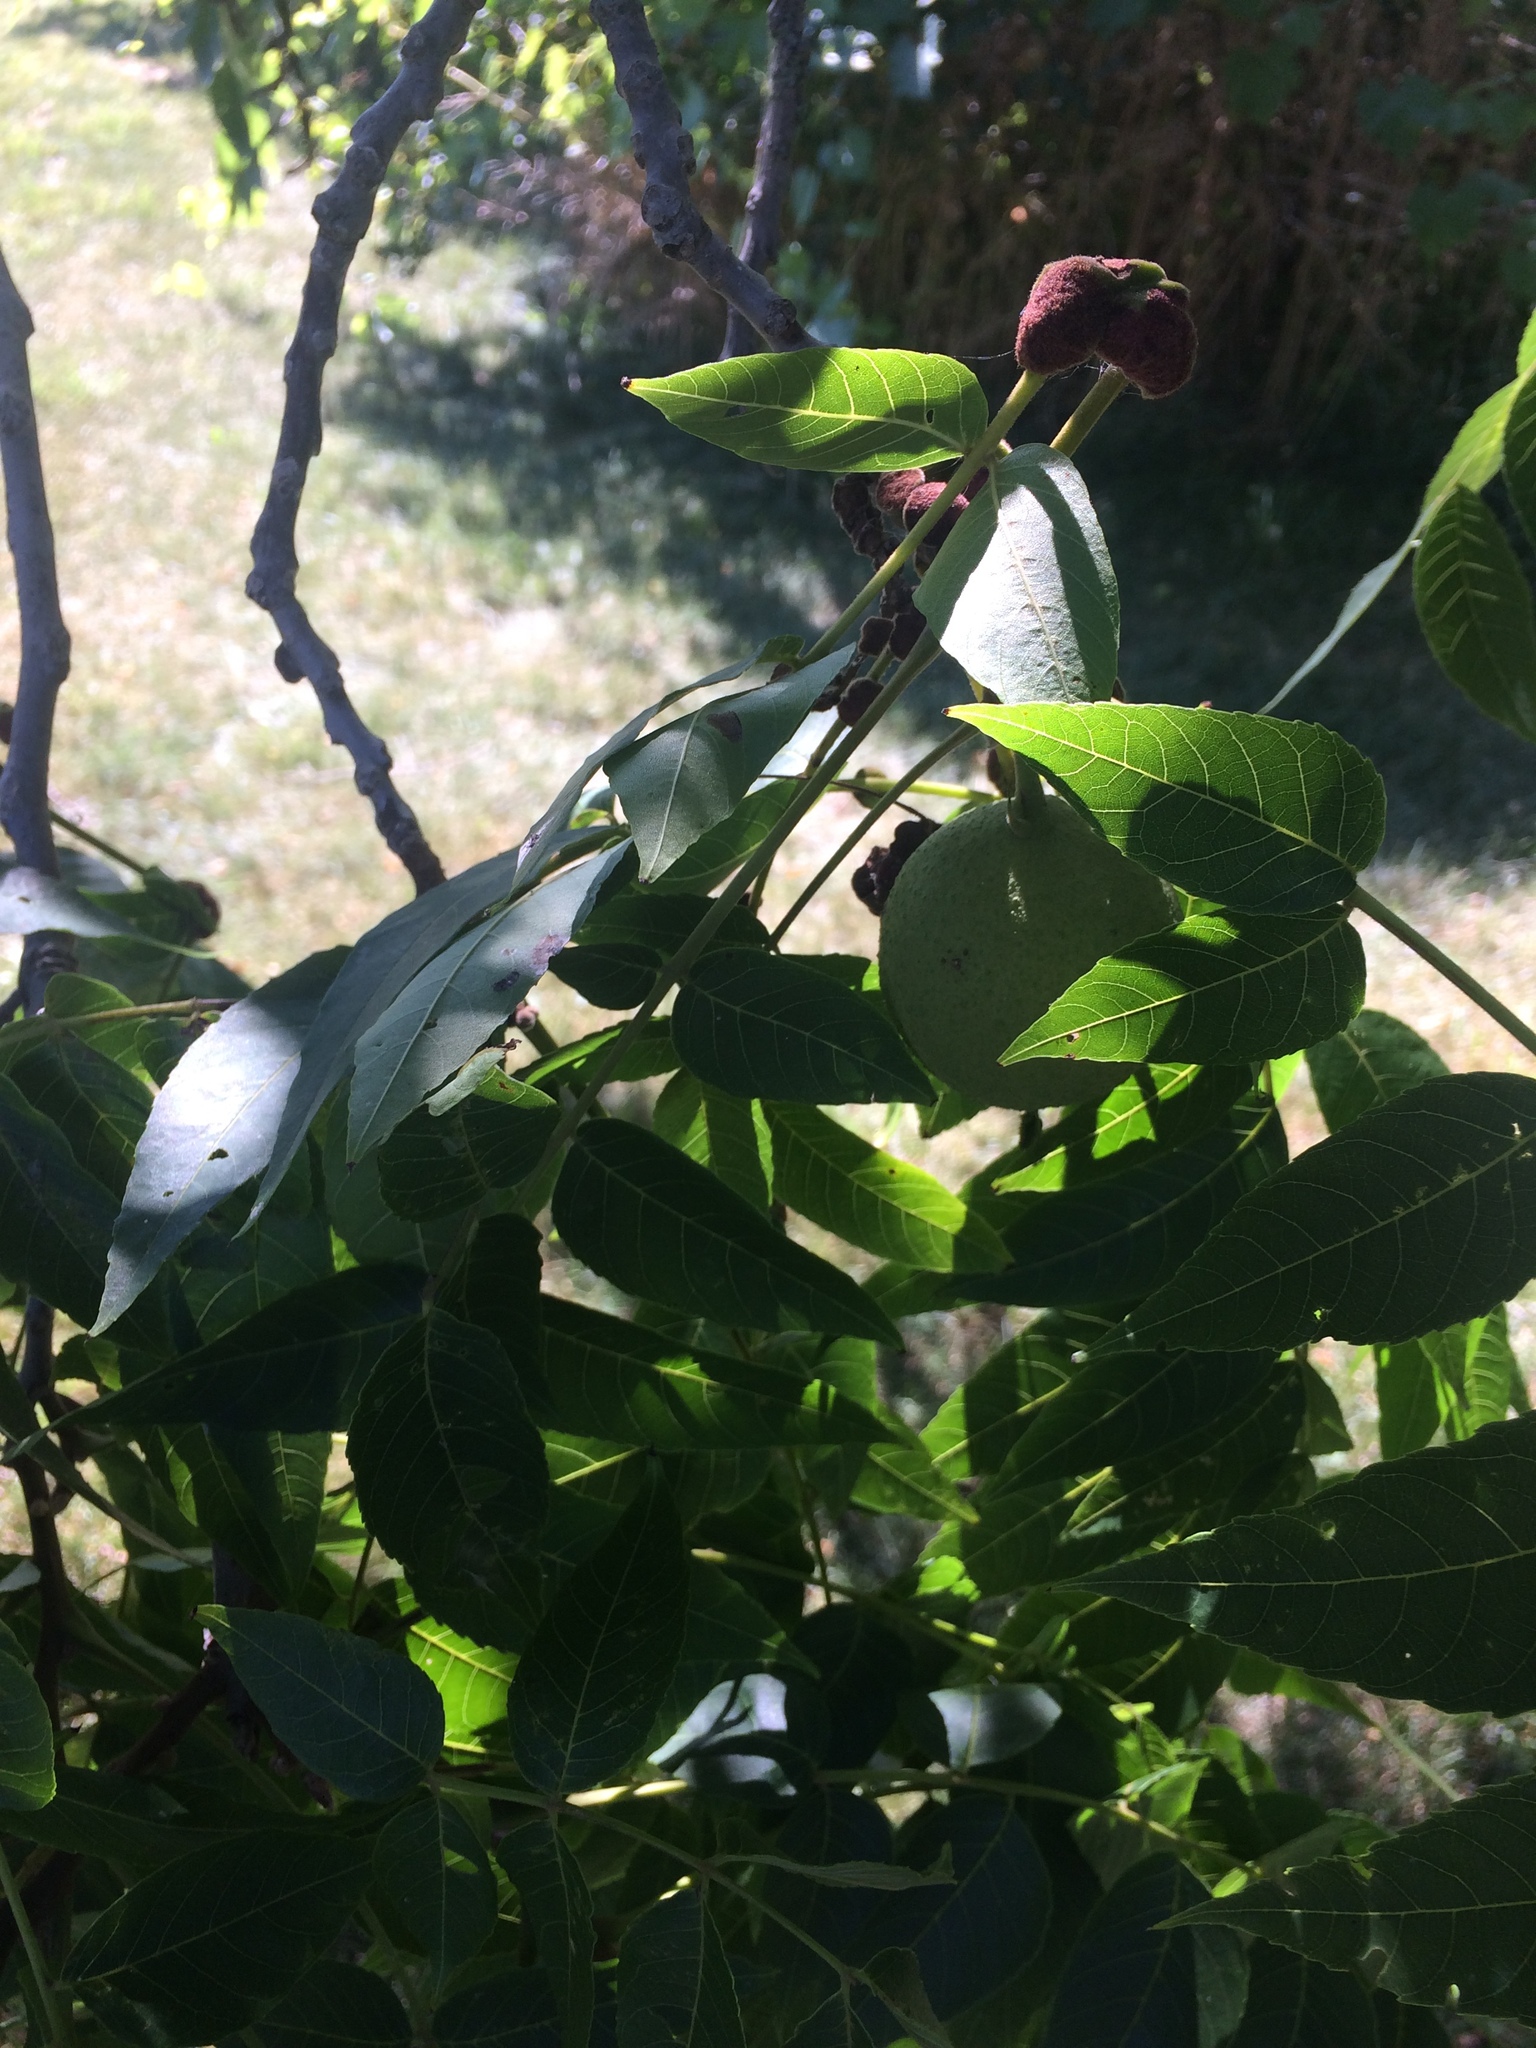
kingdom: Plantae
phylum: Tracheophyta
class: Magnoliopsida
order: Fagales
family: Juglandaceae
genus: Juglans
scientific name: Juglans nigra
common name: Black walnut
